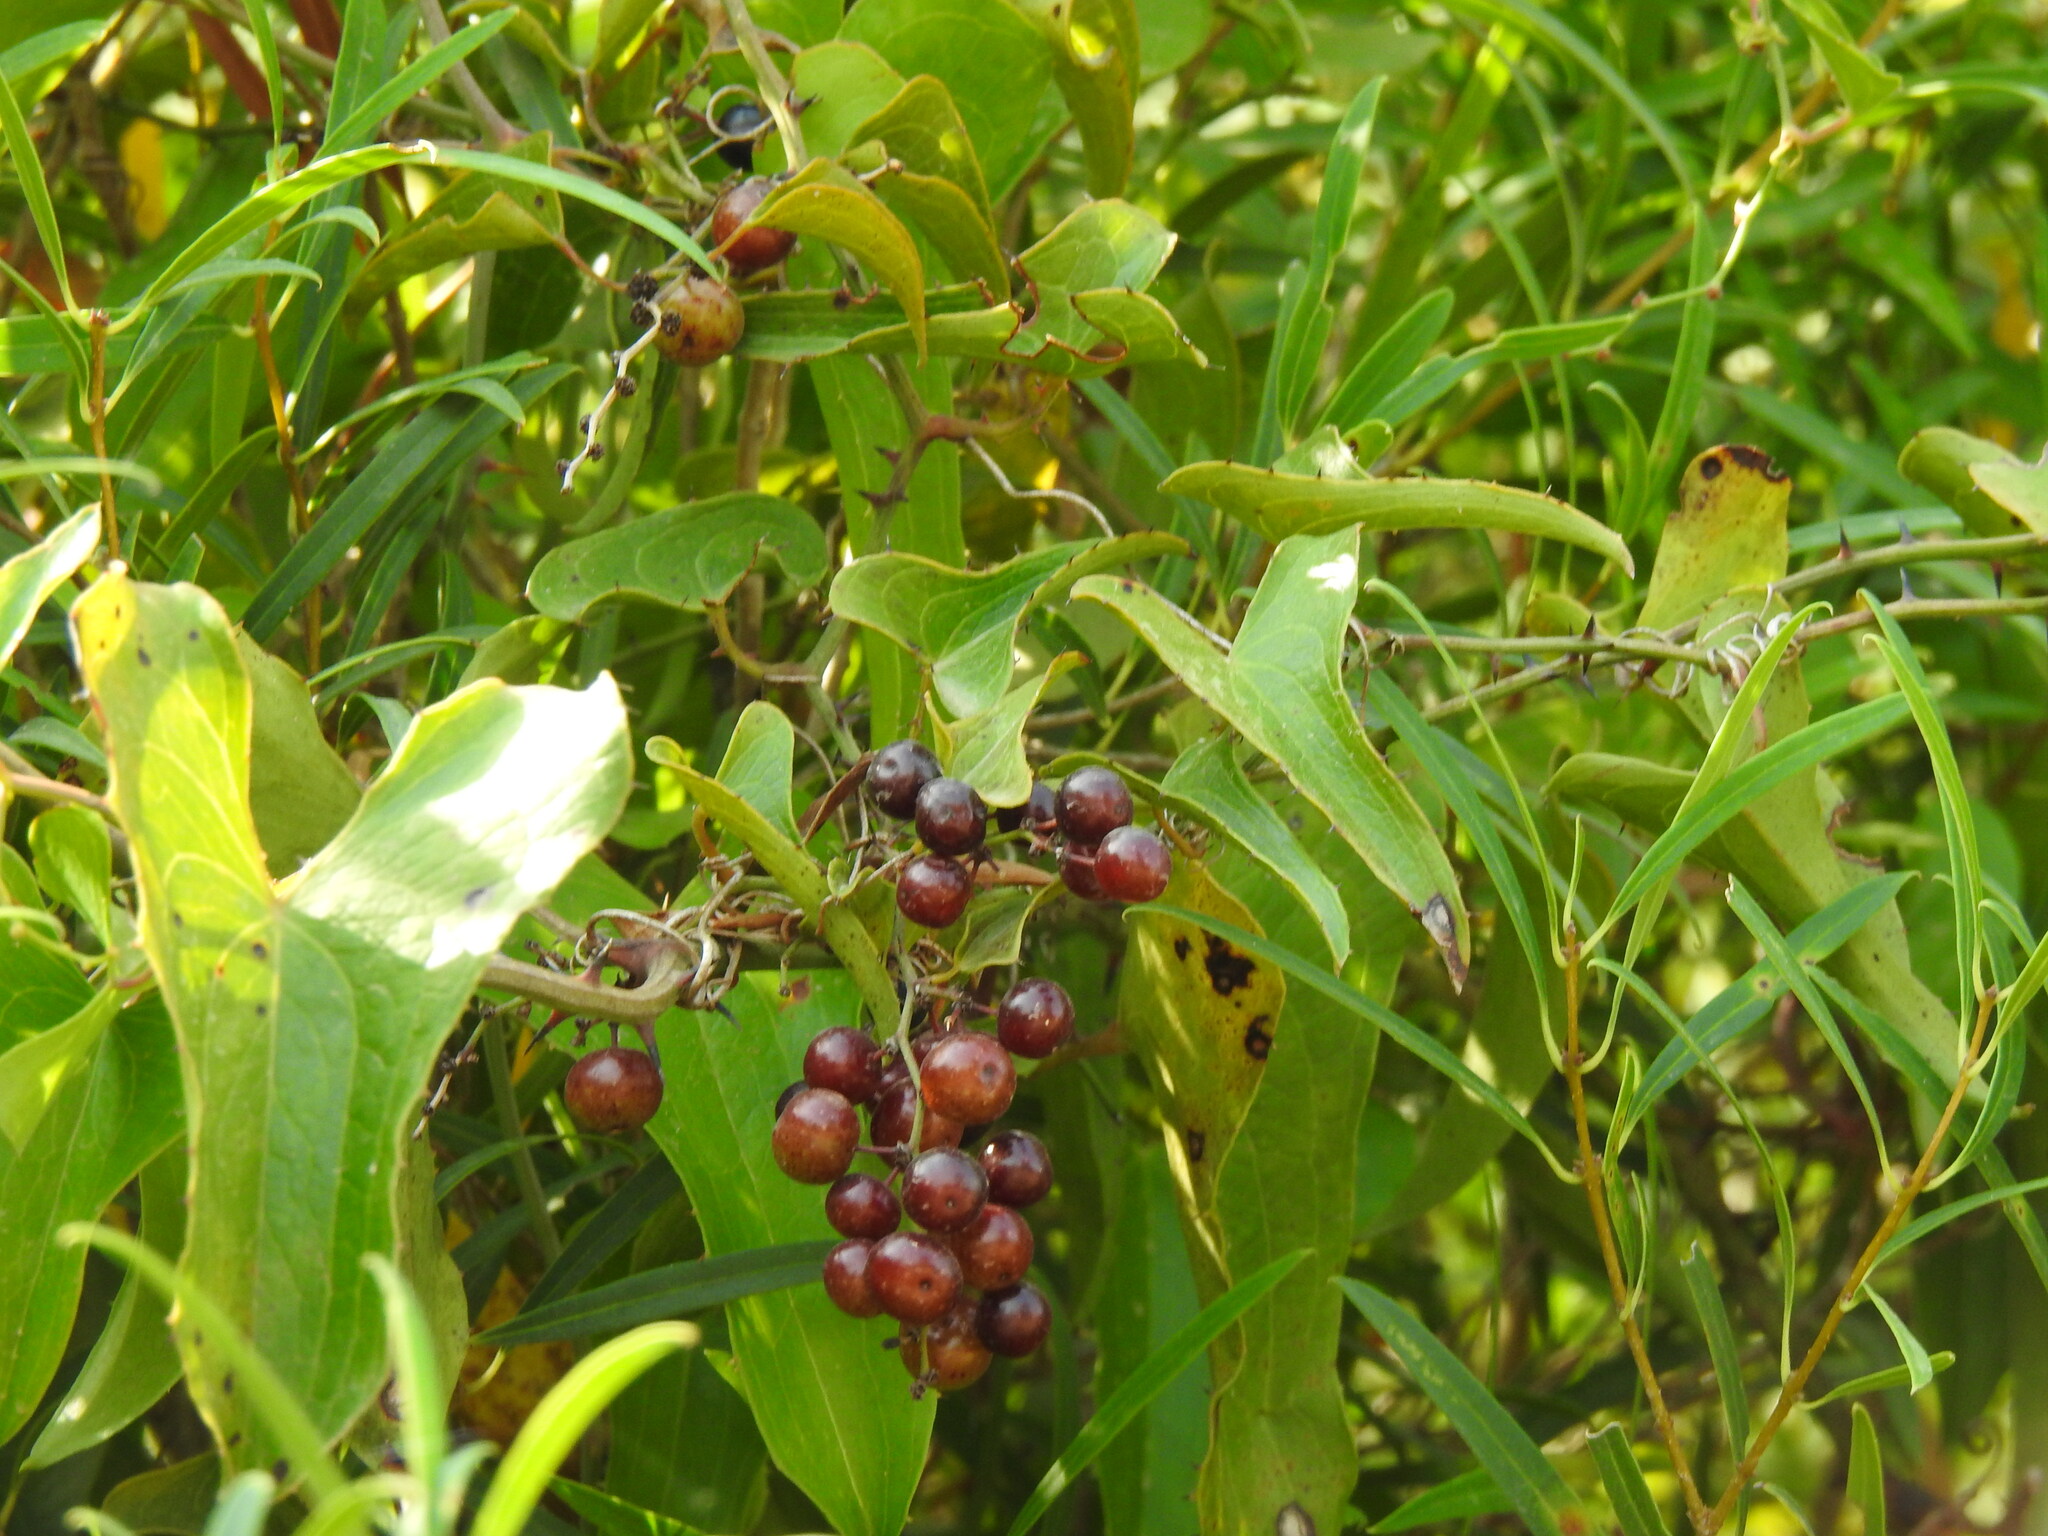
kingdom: Plantae
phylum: Tracheophyta
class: Liliopsida
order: Liliales
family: Smilacaceae
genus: Smilax
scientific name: Smilax aspera
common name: Common smilax
